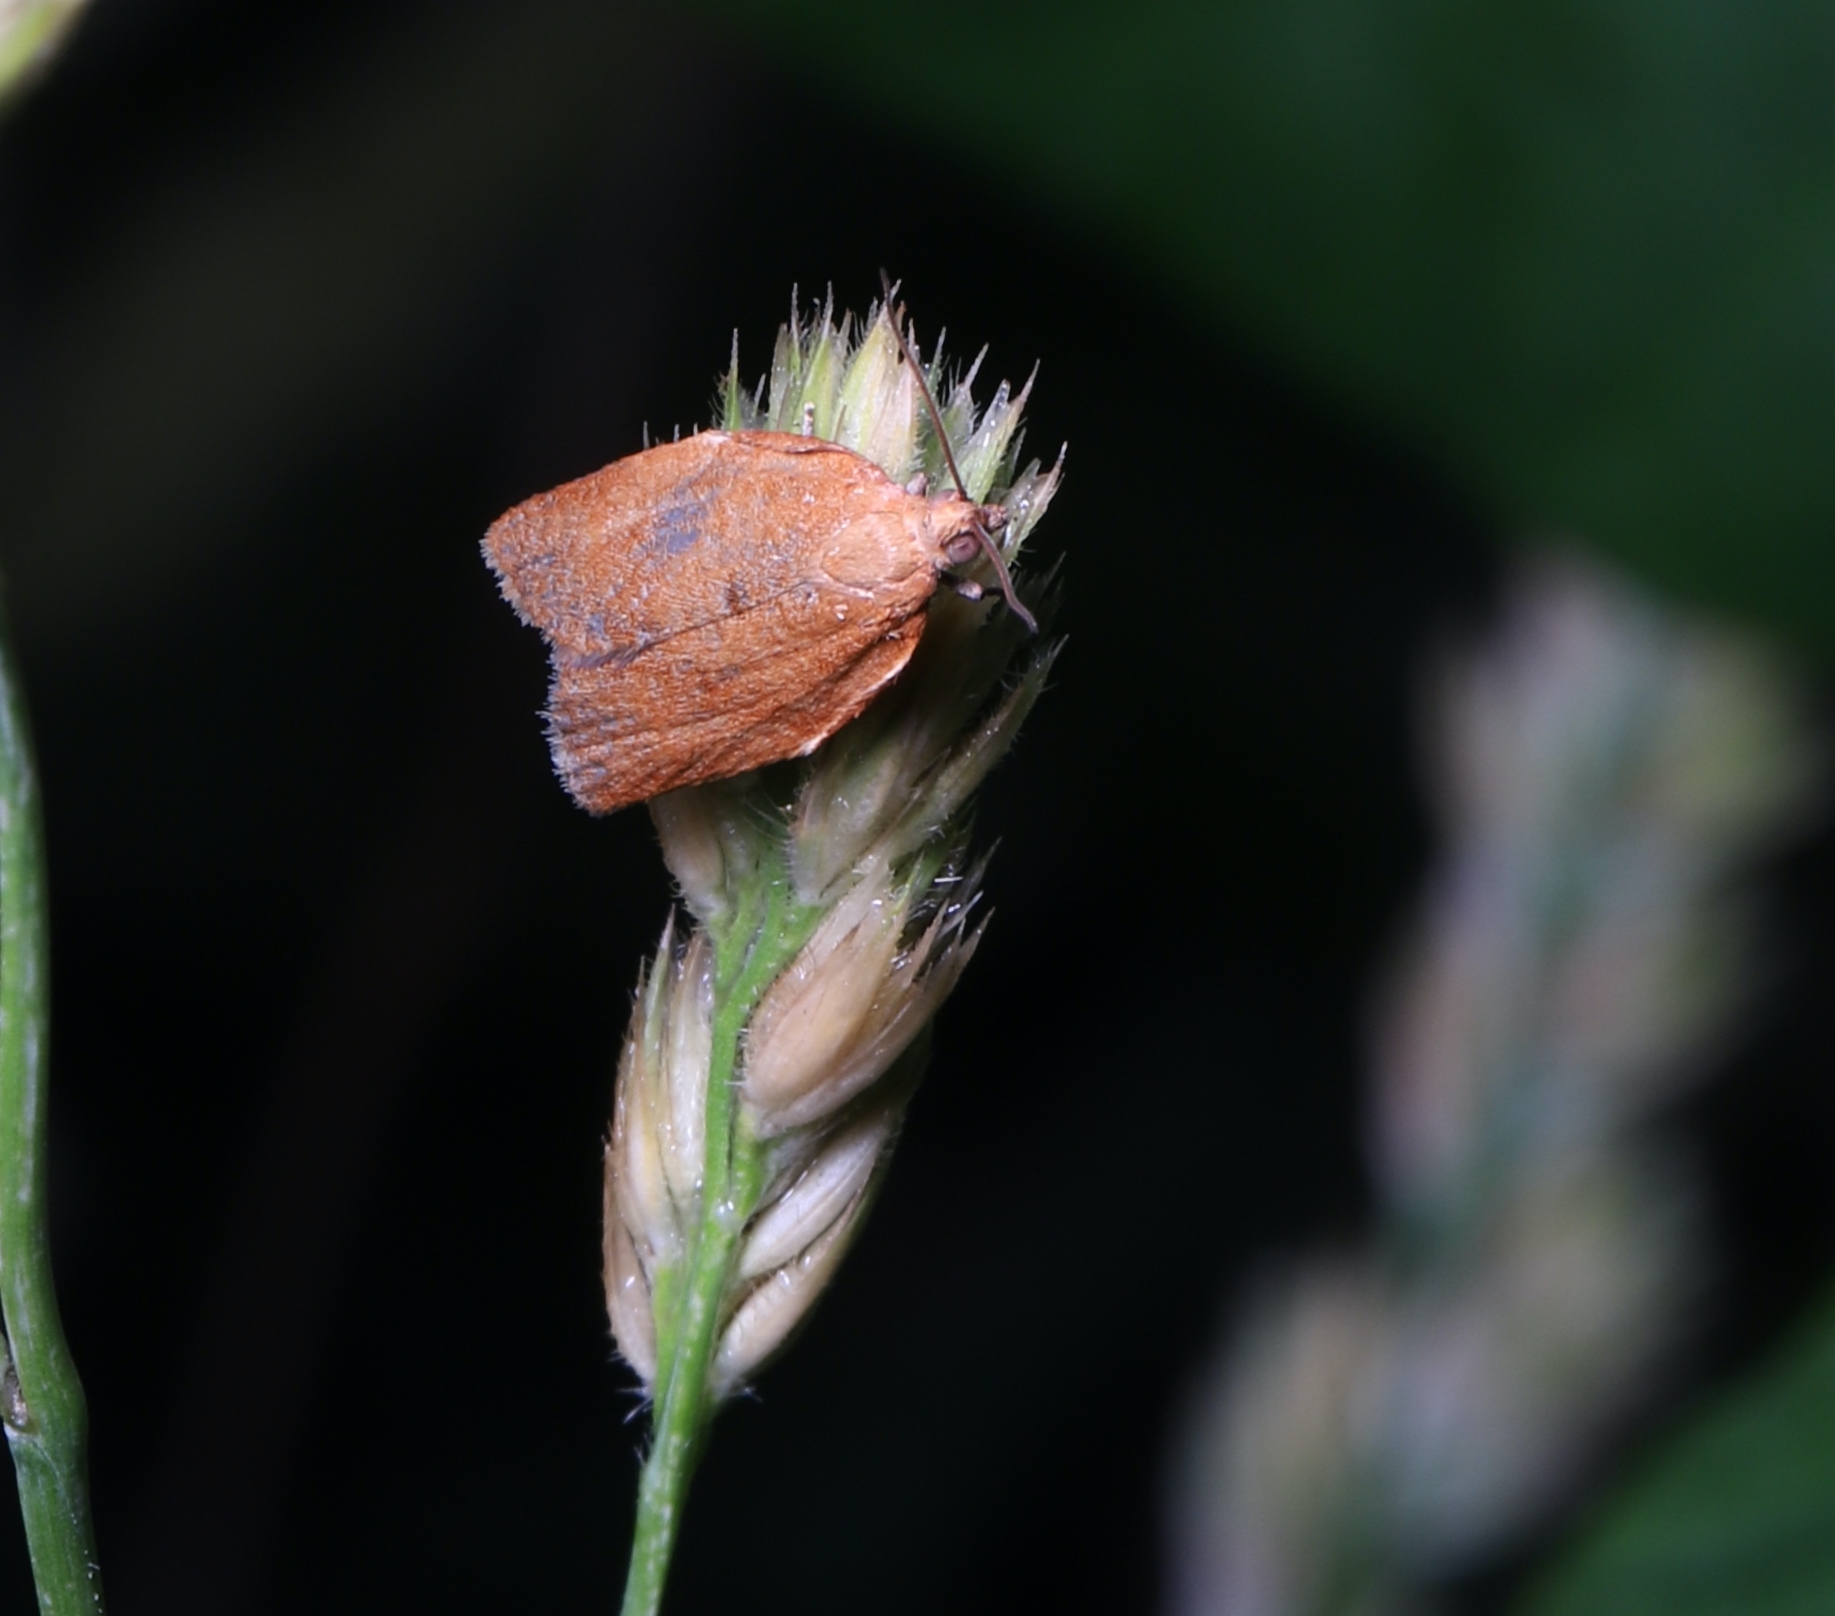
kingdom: Animalia
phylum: Arthropoda
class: Insecta
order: Lepidoptera
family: Tortricidae
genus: Clepsis
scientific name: Clepsis consimilana
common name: Privet tortrix
